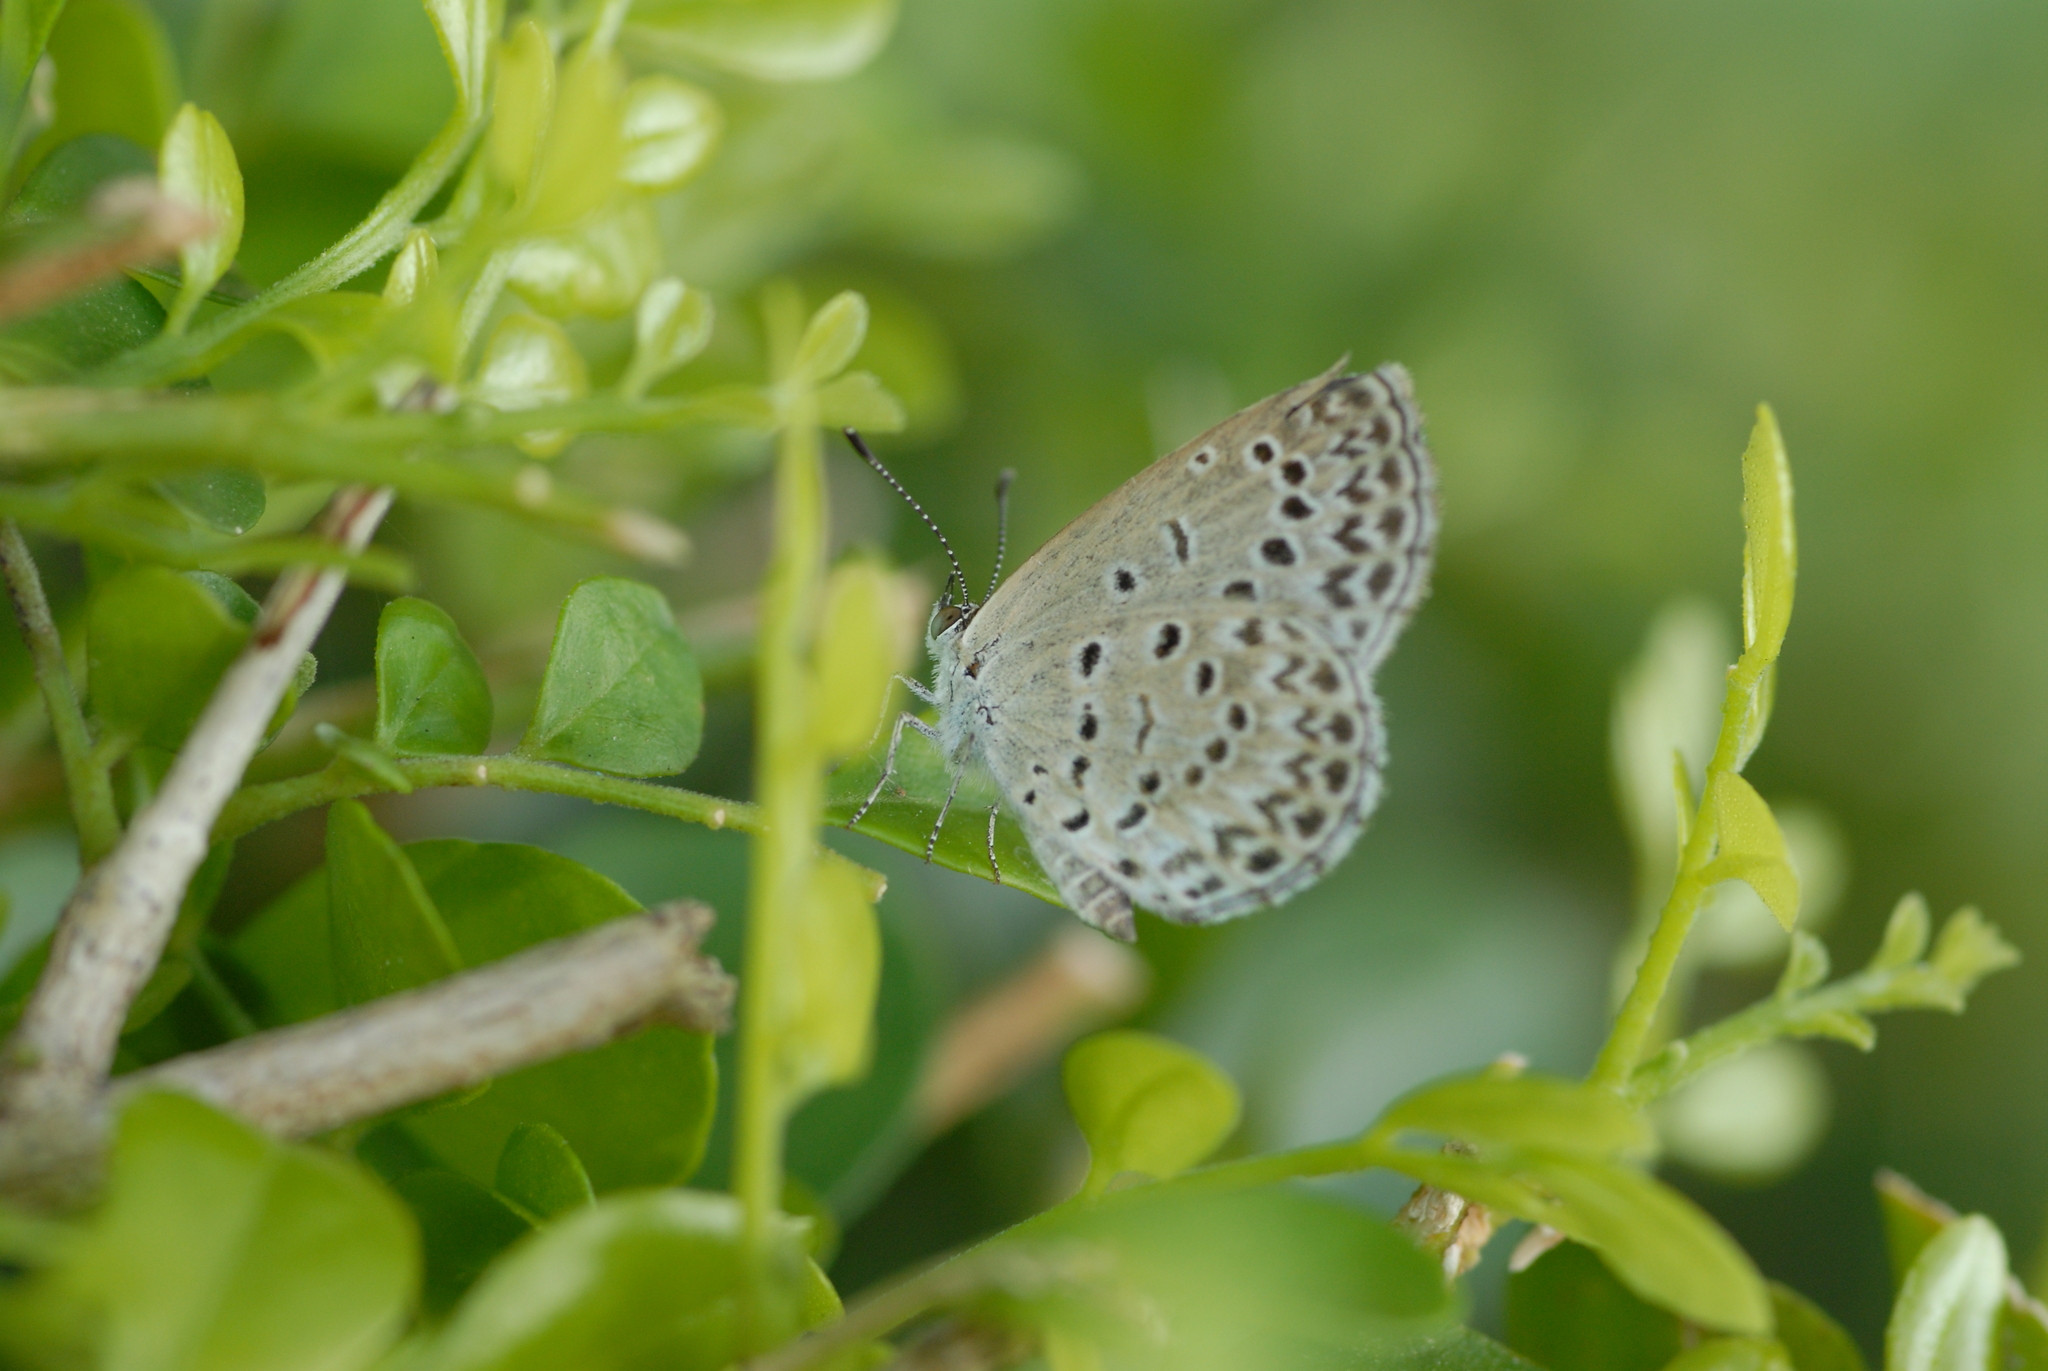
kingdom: Animalia
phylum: Arthropoda
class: Insecta
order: Lepidoptera
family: Lycaenidae
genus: Pseudozizeeria
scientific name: Pseudozizeeria maha
